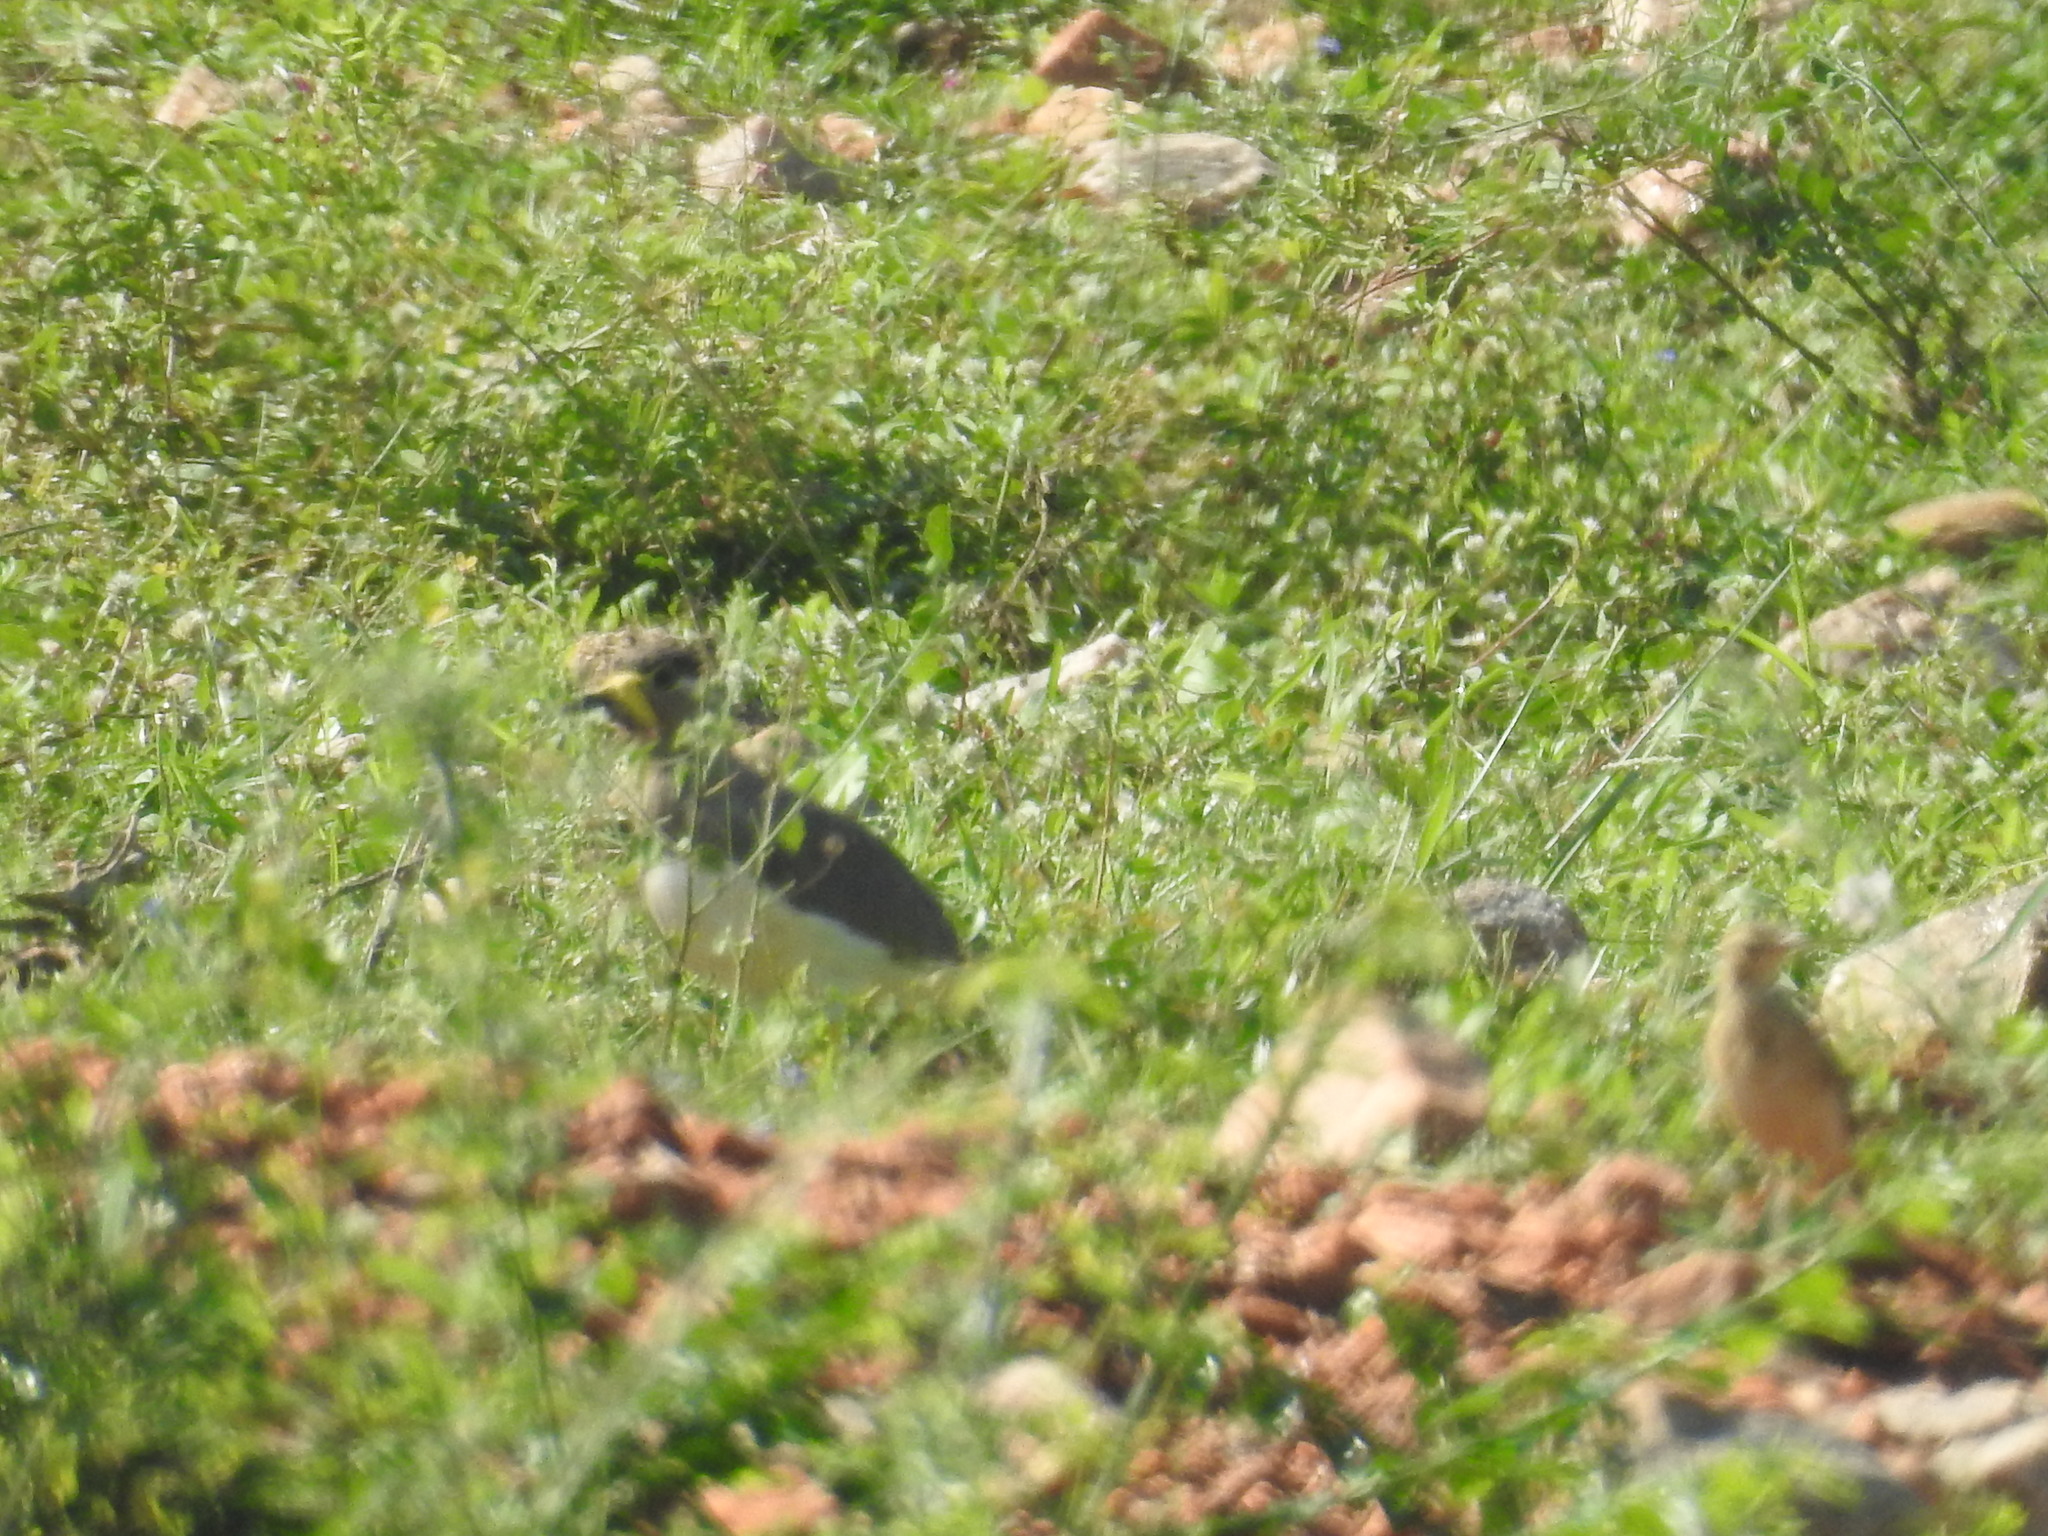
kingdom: Animalia
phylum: Chordata
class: Aves
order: Charadriiformes
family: Charadriidae
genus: Vanellus
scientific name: Vanellus malabaricus
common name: Yellow-wattled lapwing
